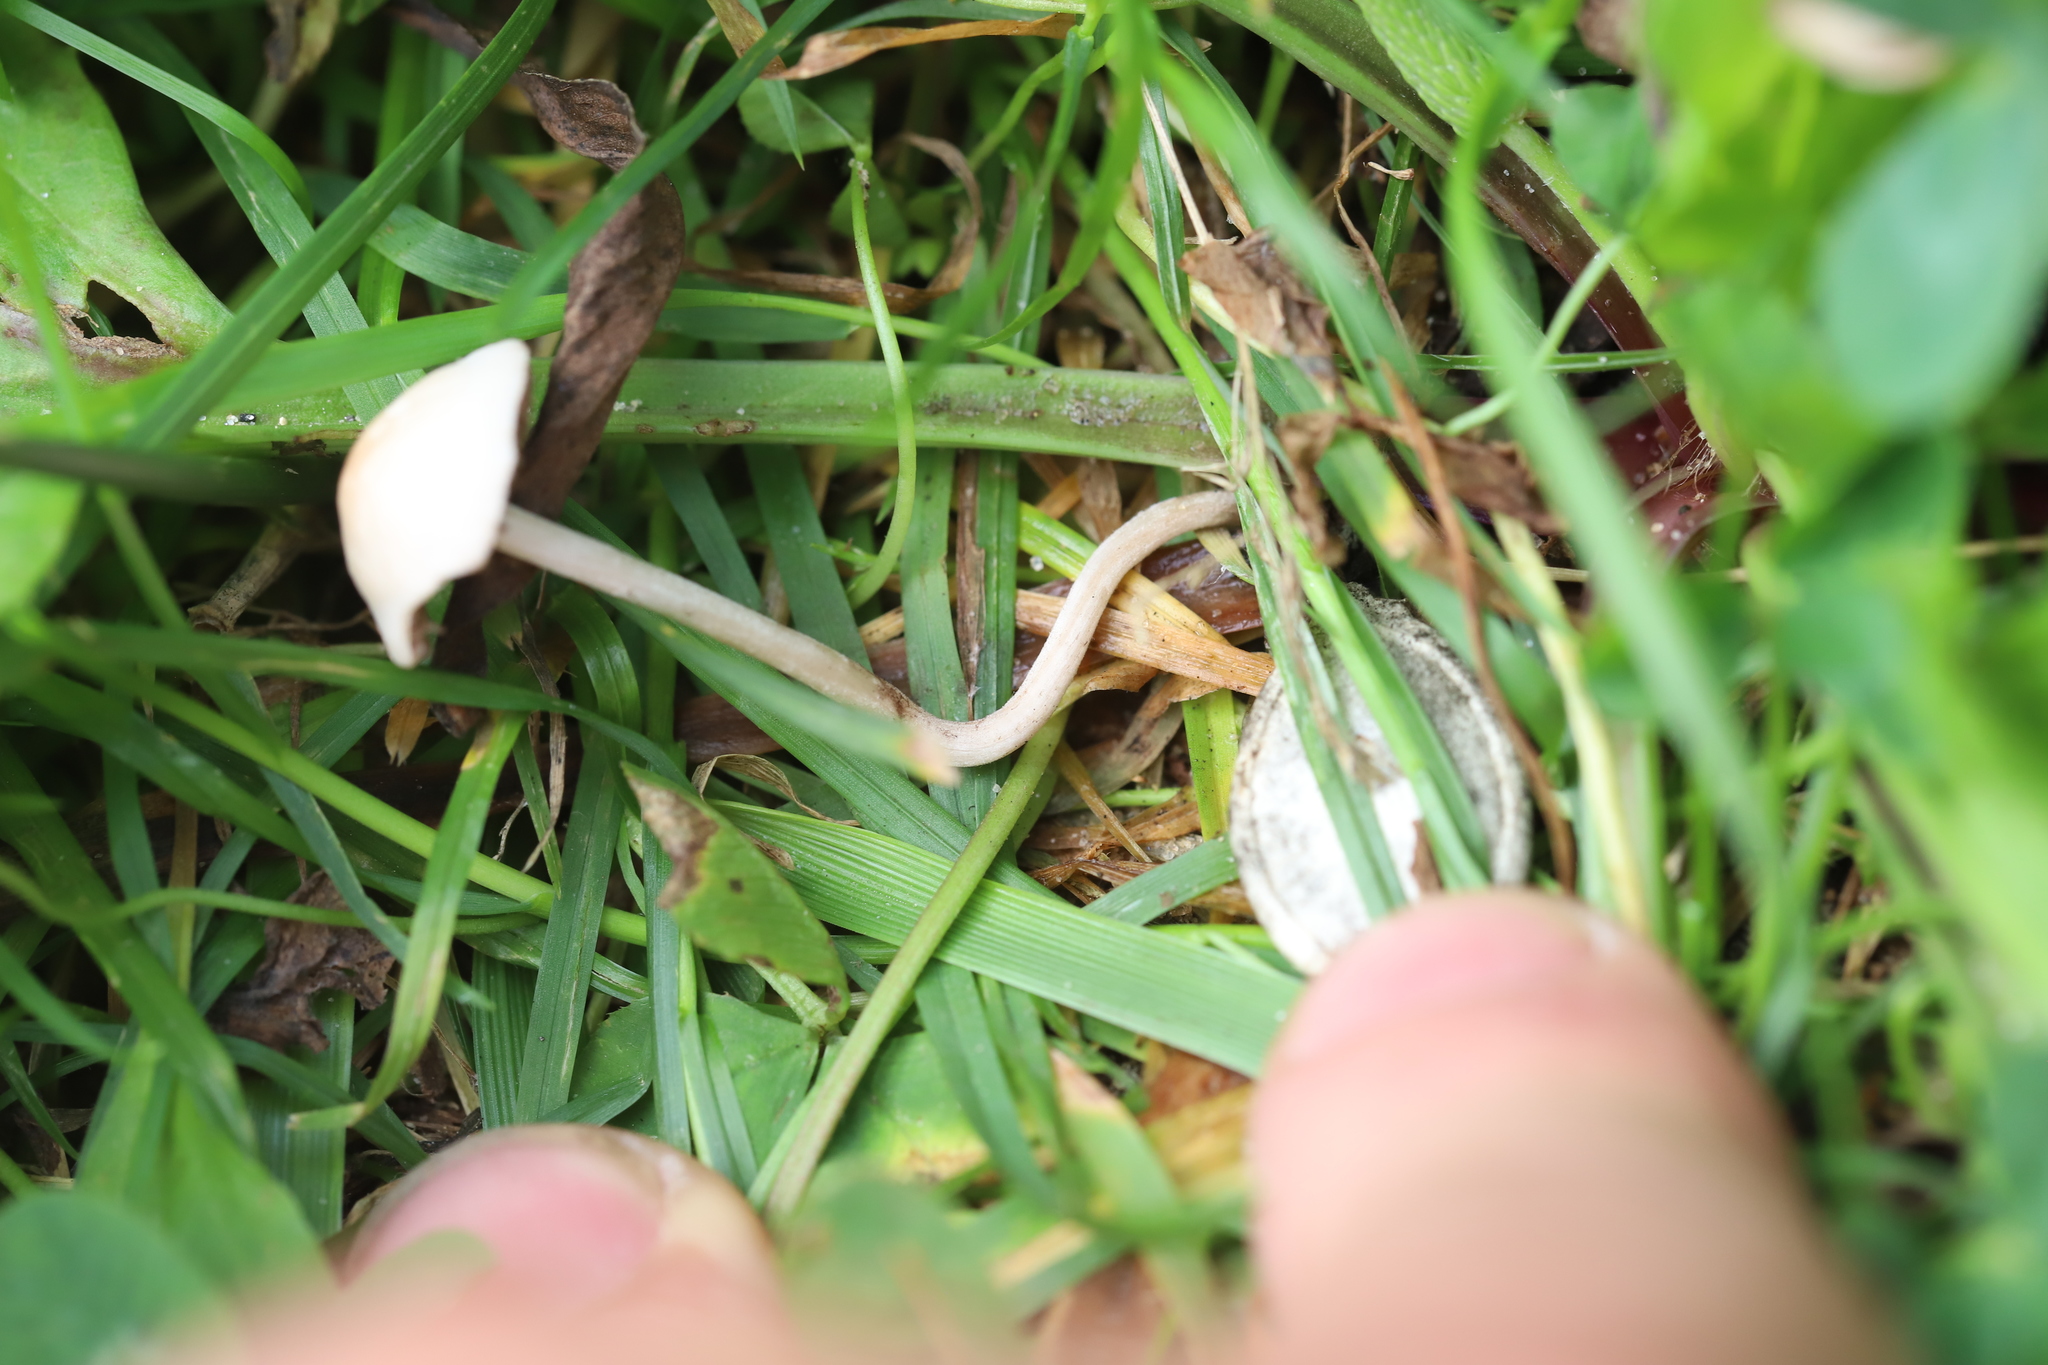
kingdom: Fungi
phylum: Basidiomycota
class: Agaricomycetes
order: Agaricales
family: Bolbitiaceae
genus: Panaeolina
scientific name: Panaeolina foenisecii
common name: Brown hay cap
